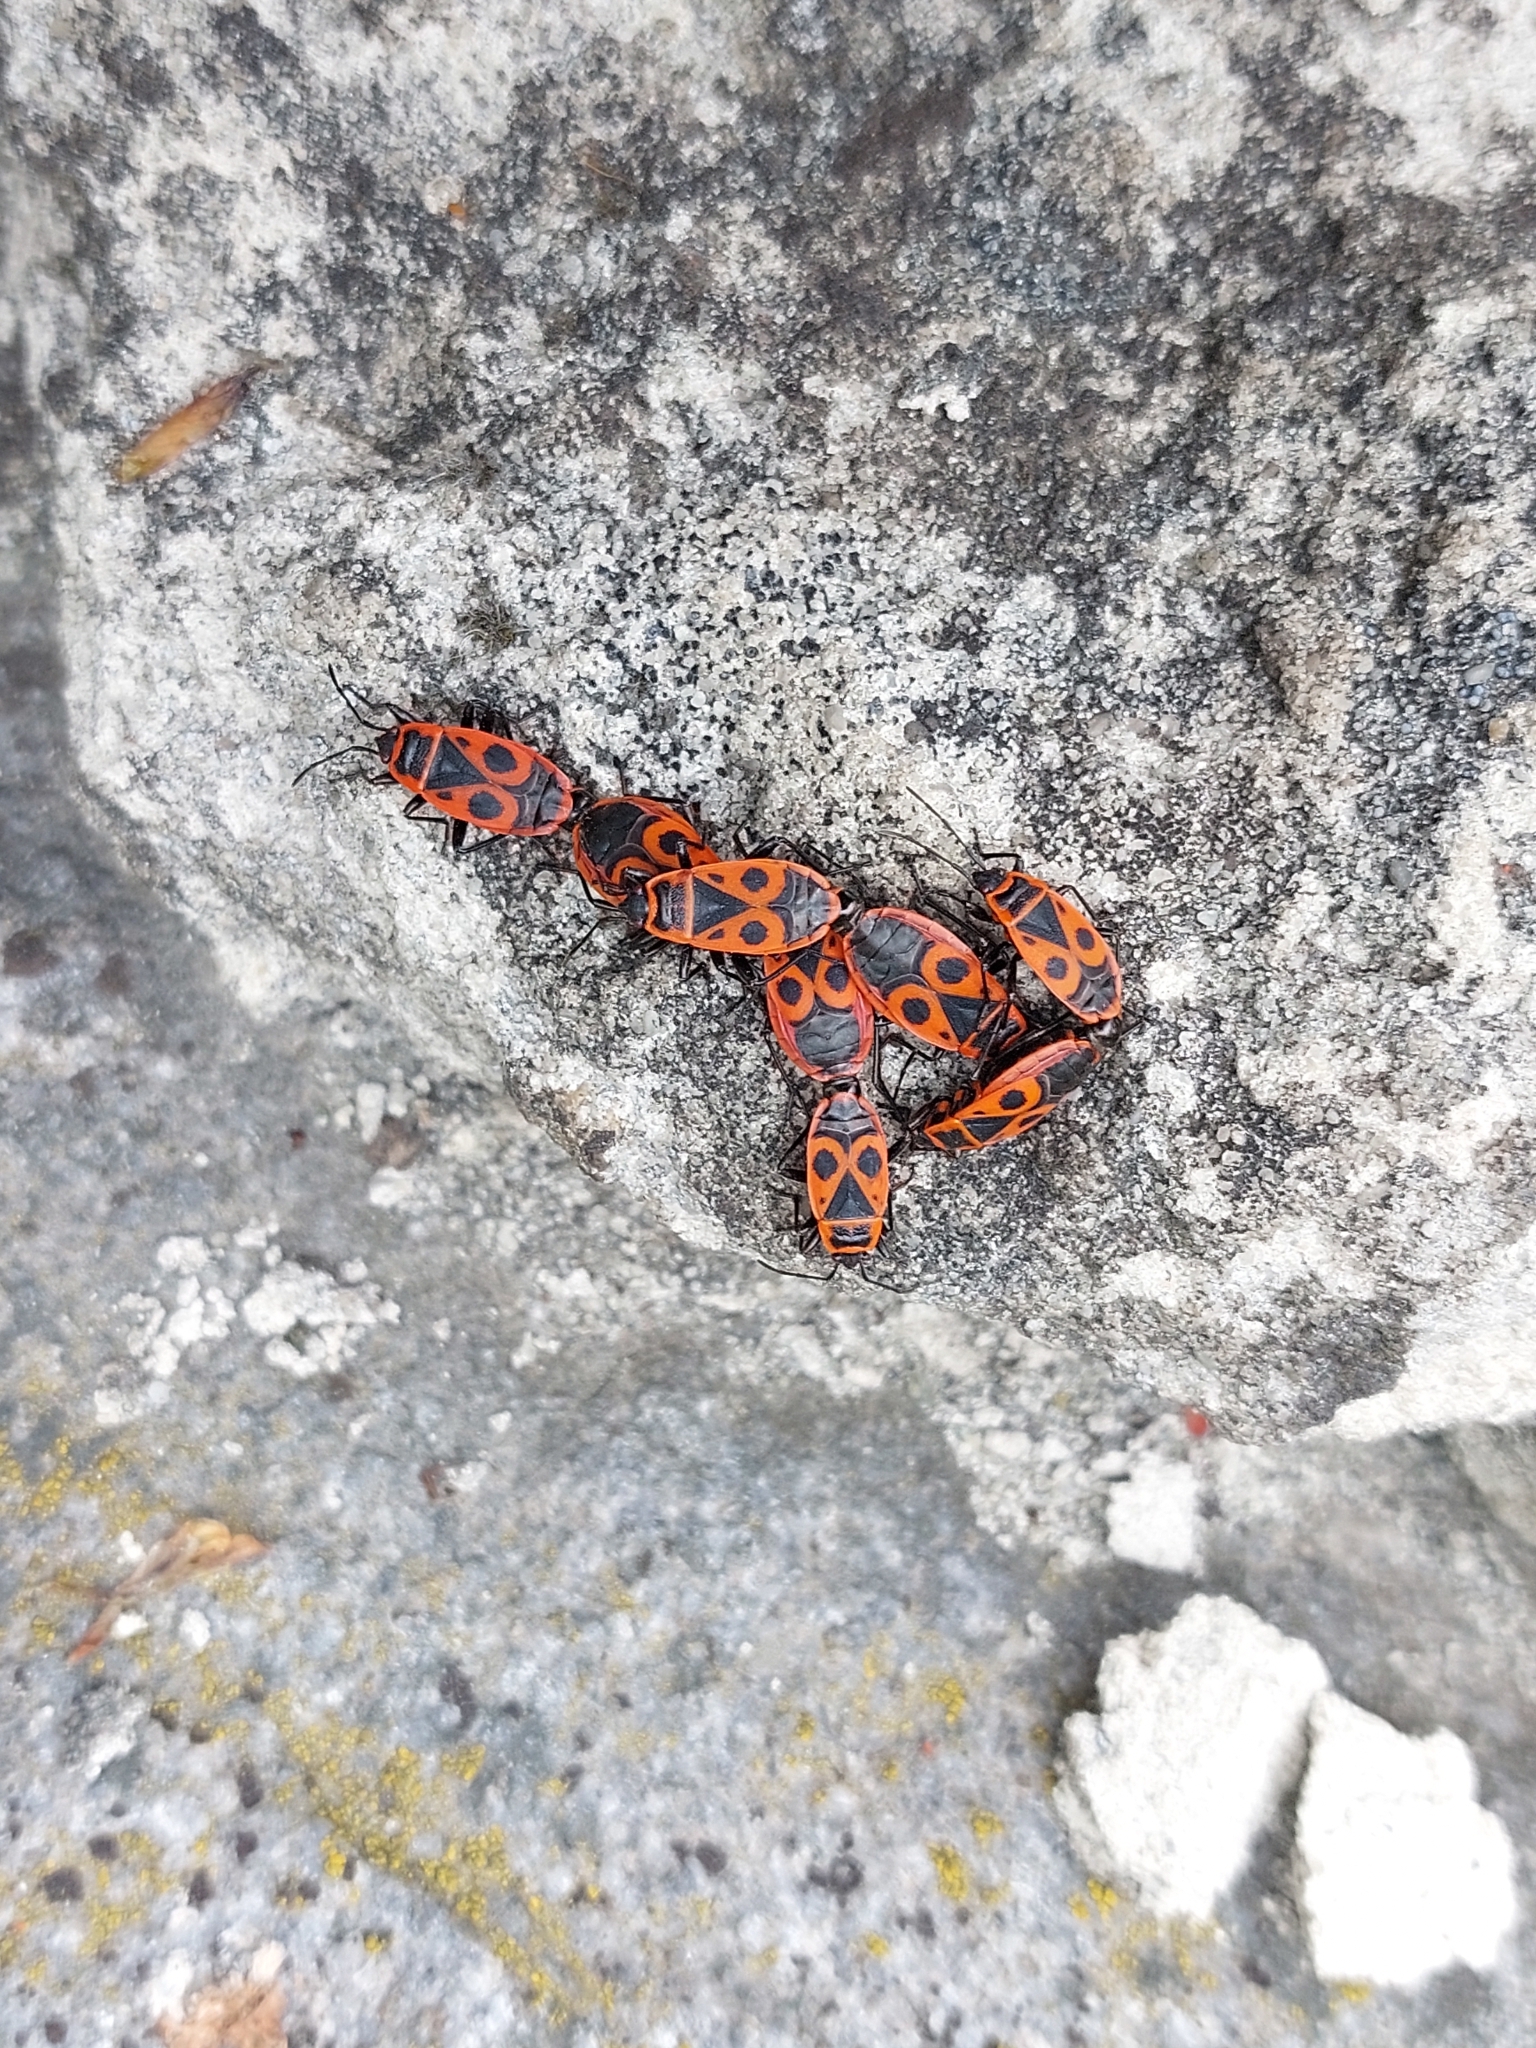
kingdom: Animalia
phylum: Arthropoda
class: Insecta
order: Hemiptera
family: Pyrrhocoridae
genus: Pyrrhocoris
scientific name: Pyrrhocoris apterus
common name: Firebug
